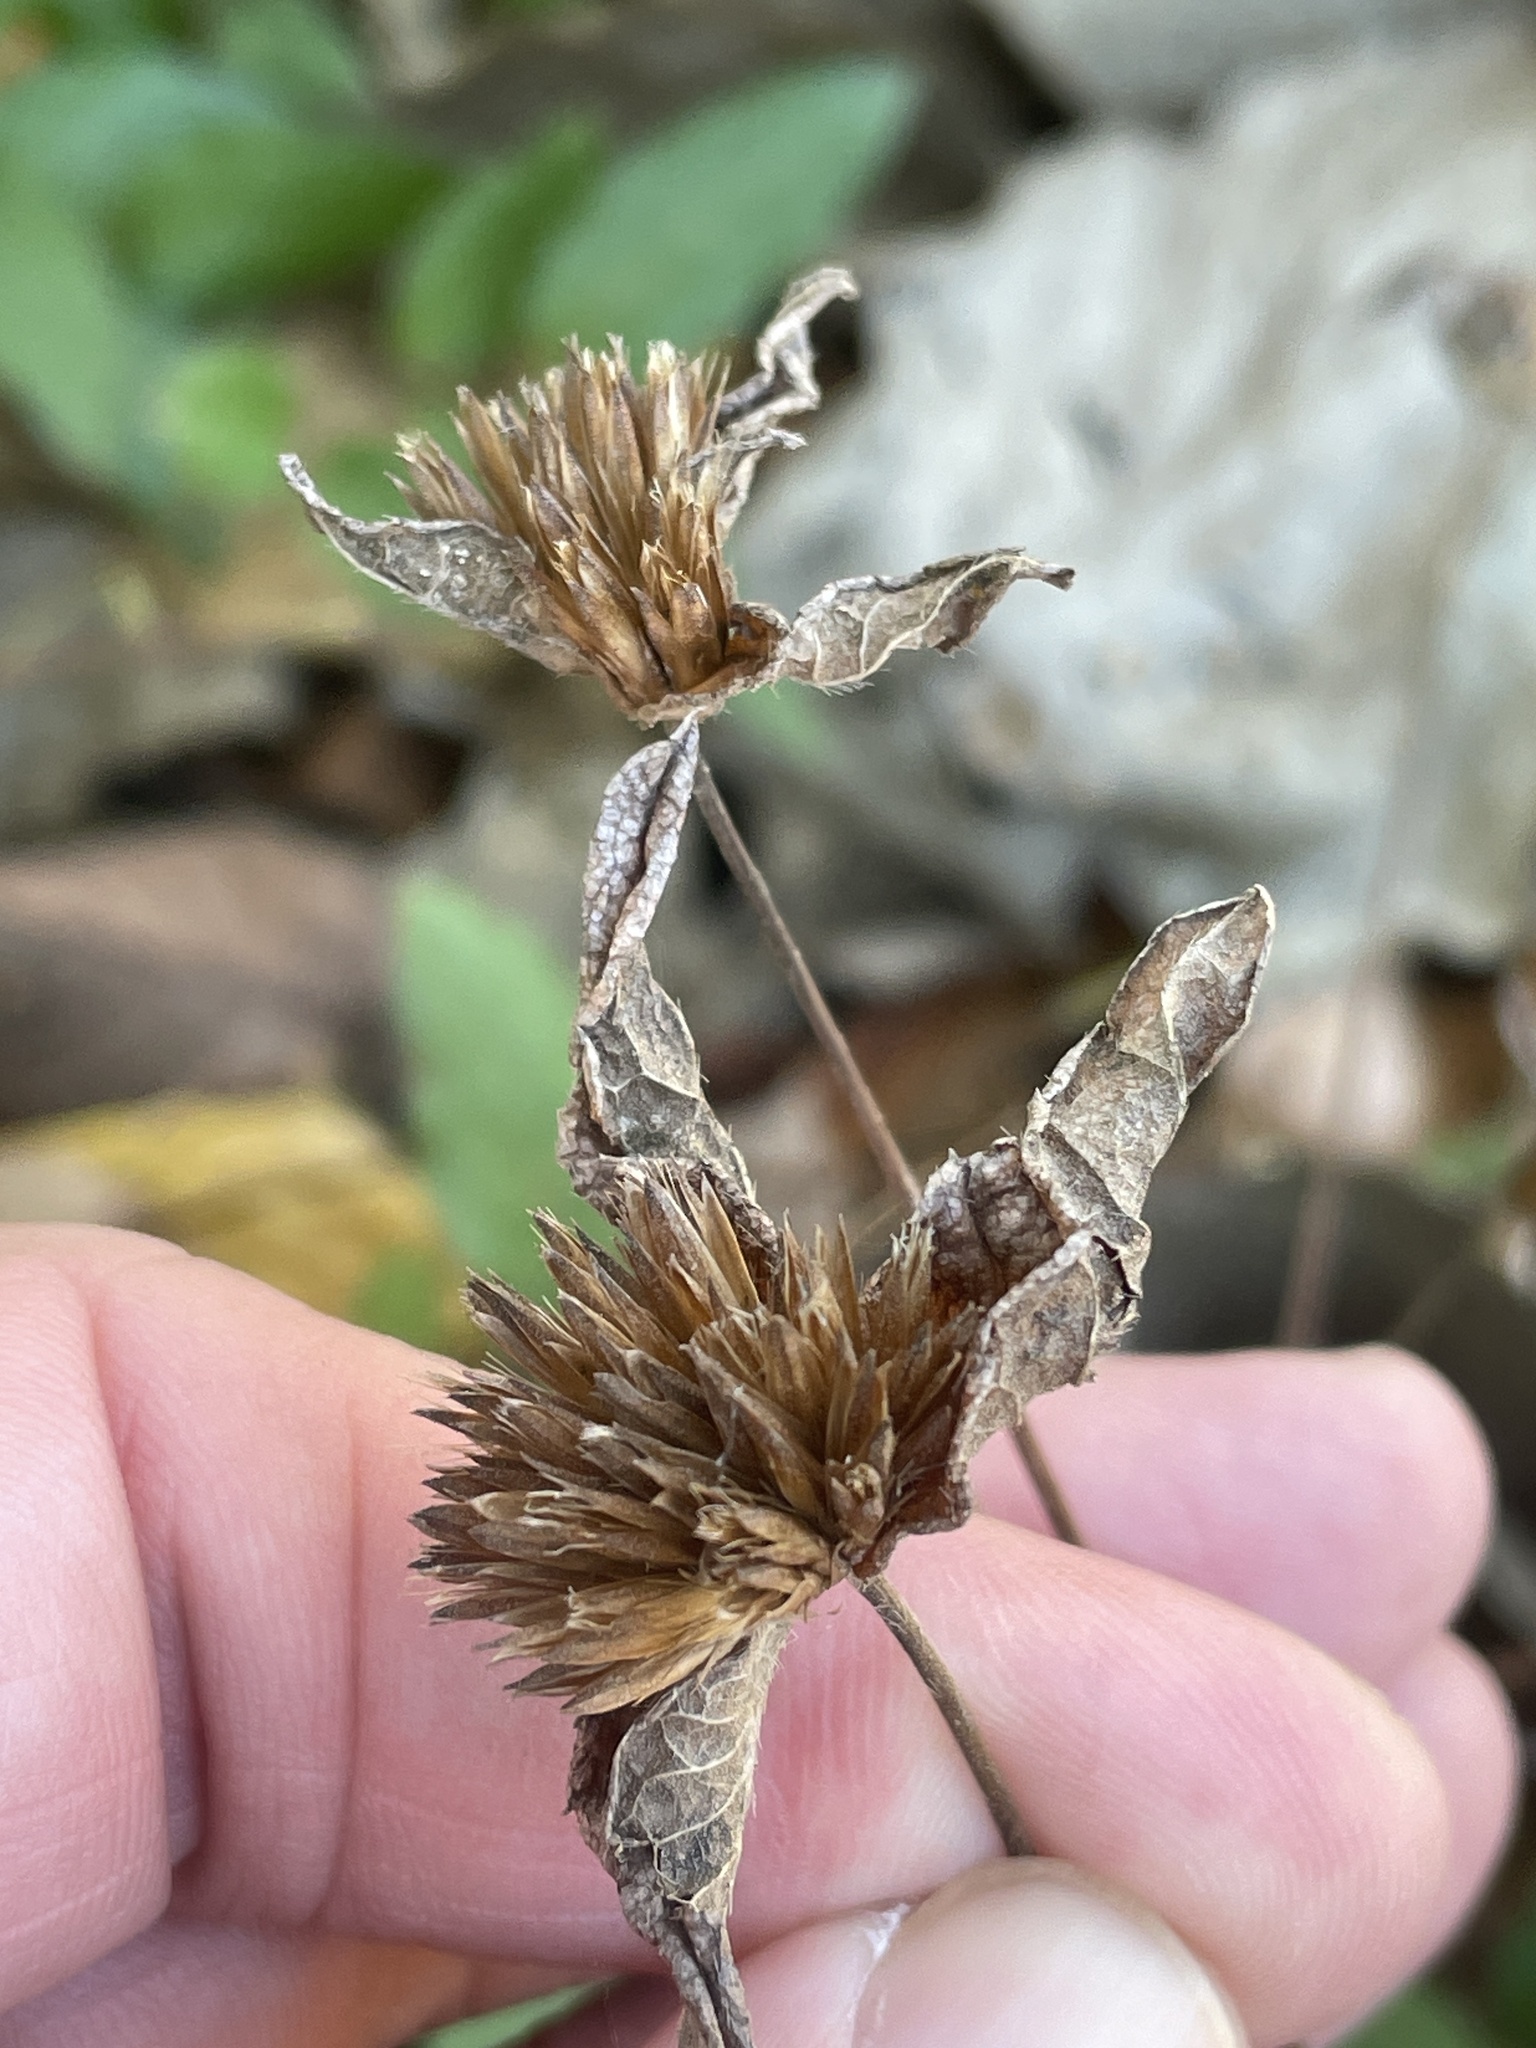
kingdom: Plantae
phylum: Tracheophyta
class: Magnoliopsida
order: Asterales
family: Asteraceae
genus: Elephantopus
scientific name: Elephantopus carolinianus
